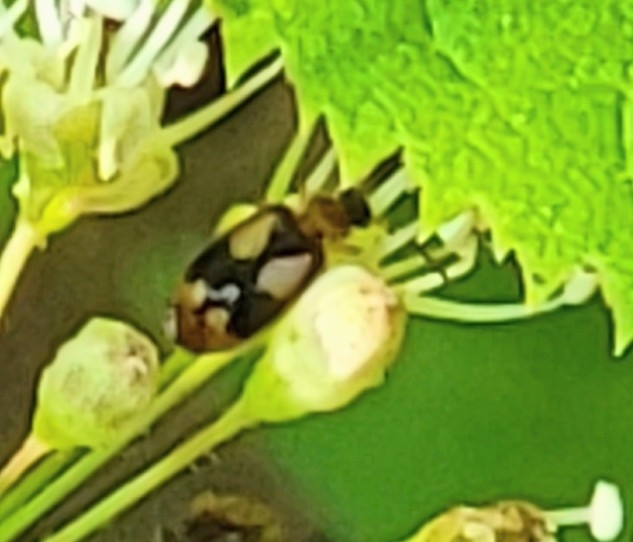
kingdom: Animalia
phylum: Arthropoda
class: Insecta
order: Coleoptera
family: Carabidae
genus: Lebia
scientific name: Lebia ornata
